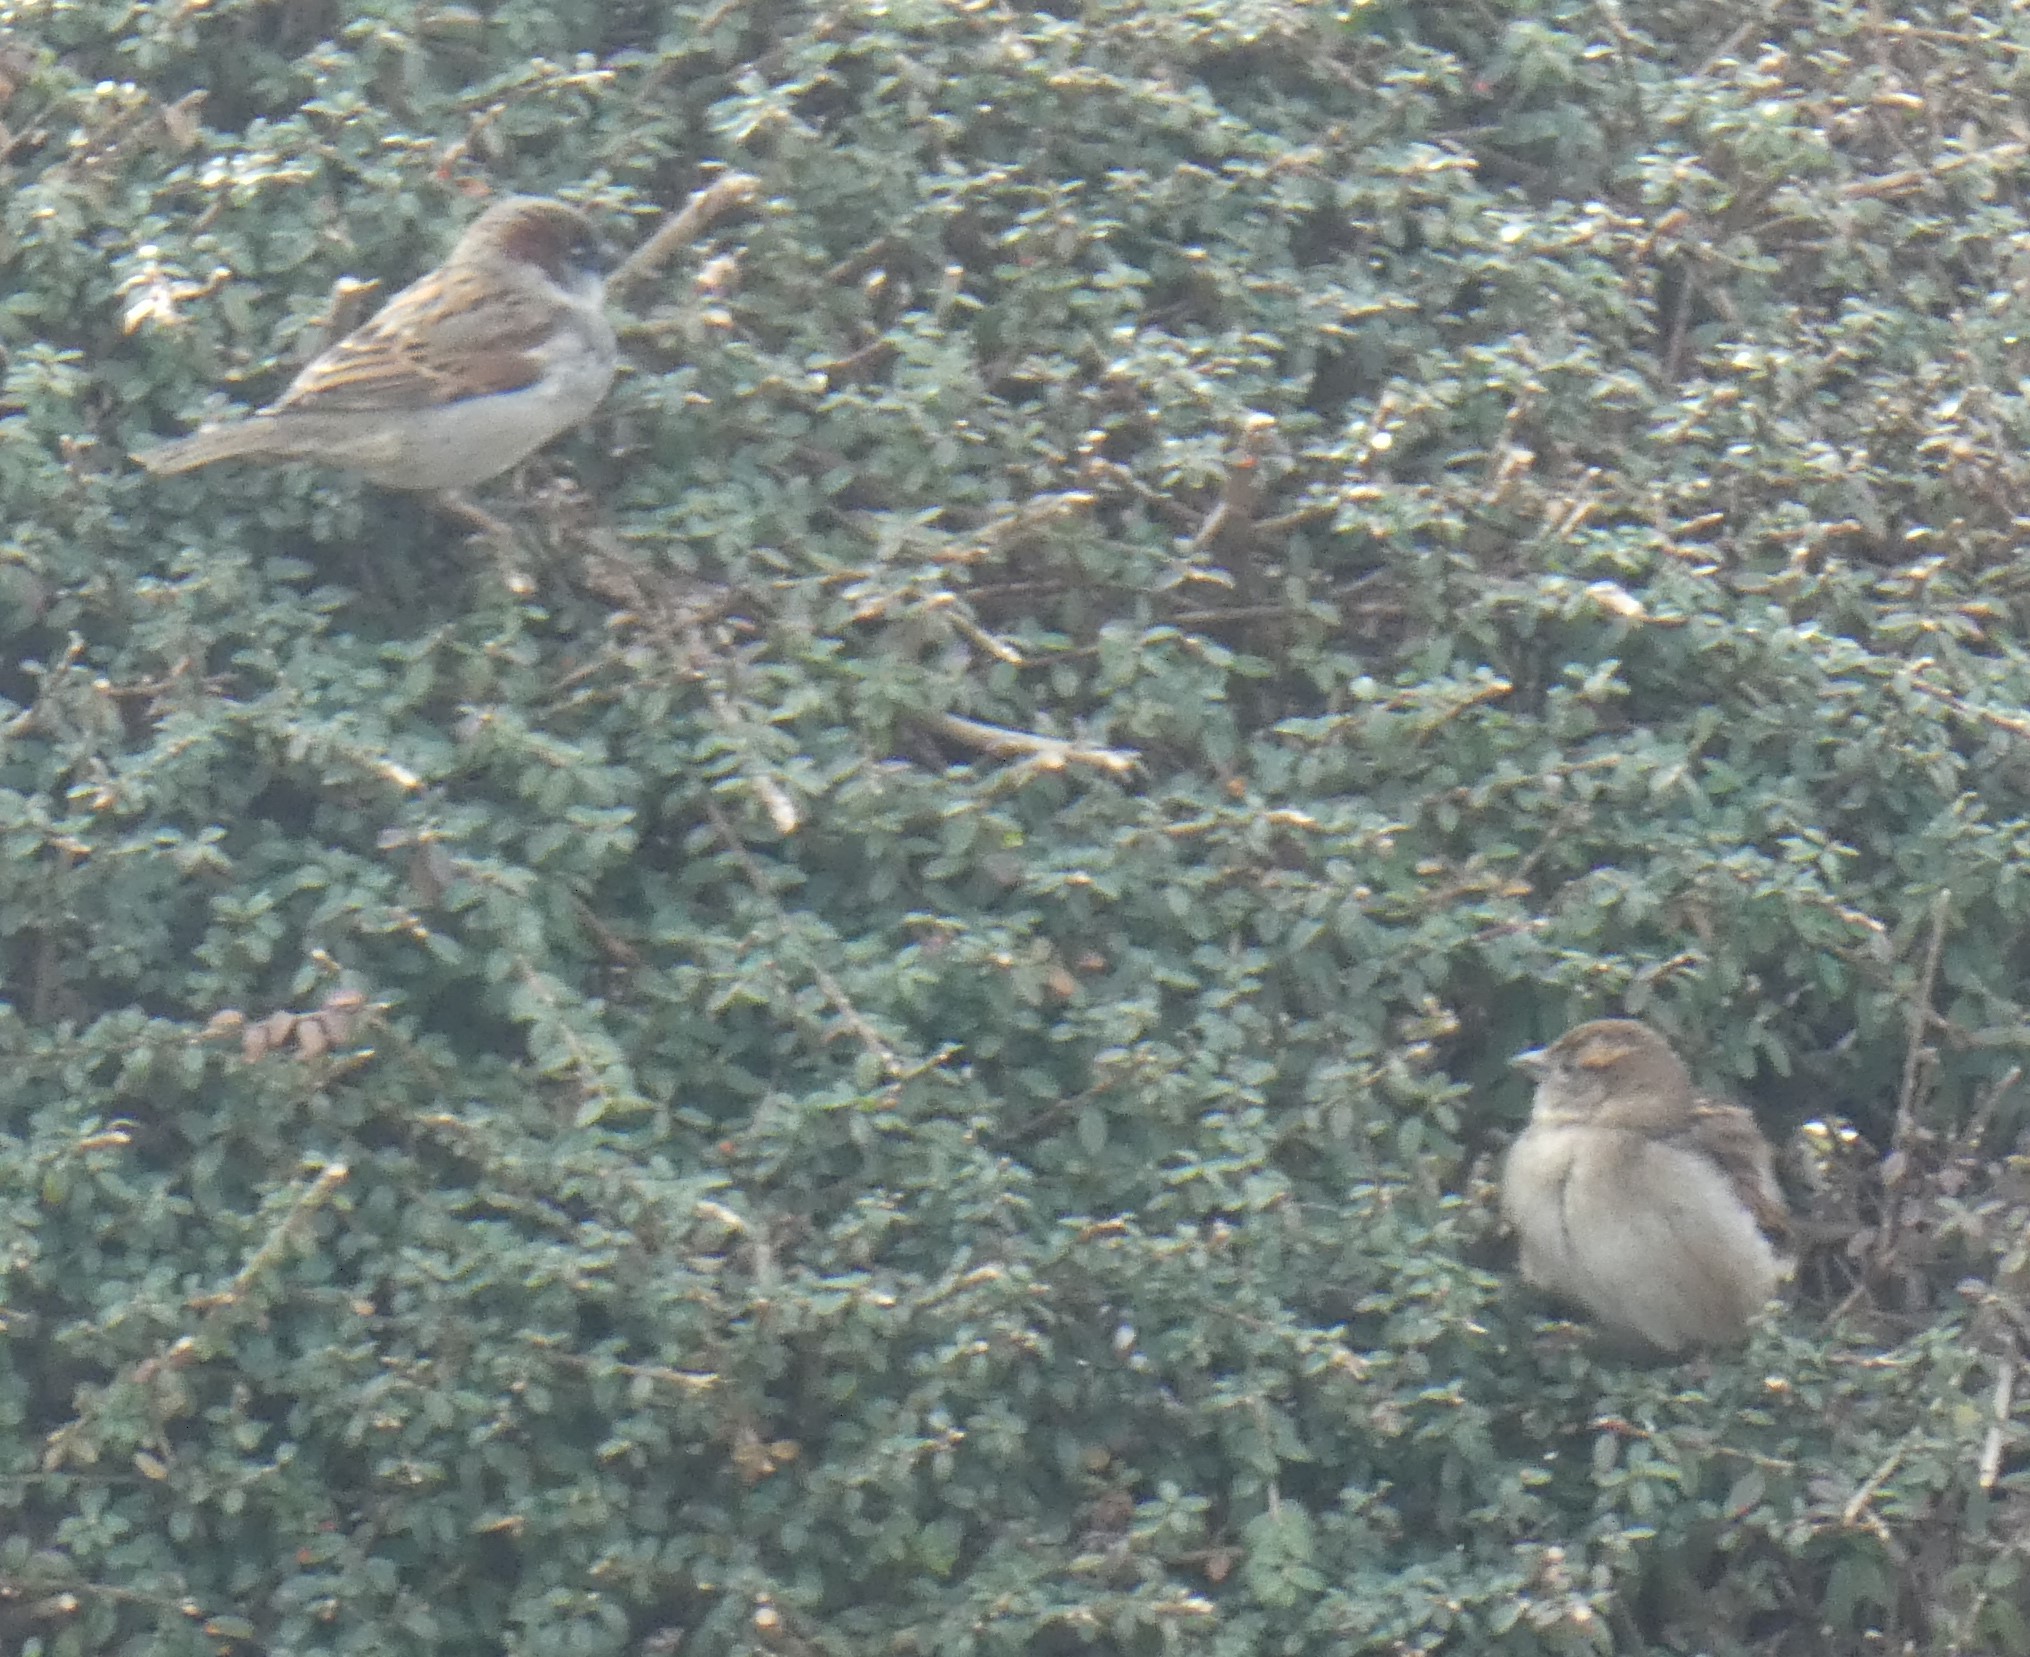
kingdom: Animalia
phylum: Chordata
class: Aves
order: Passeriformes
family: Passeridae
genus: Passer
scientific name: Passer domesticus
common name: House sparrow
